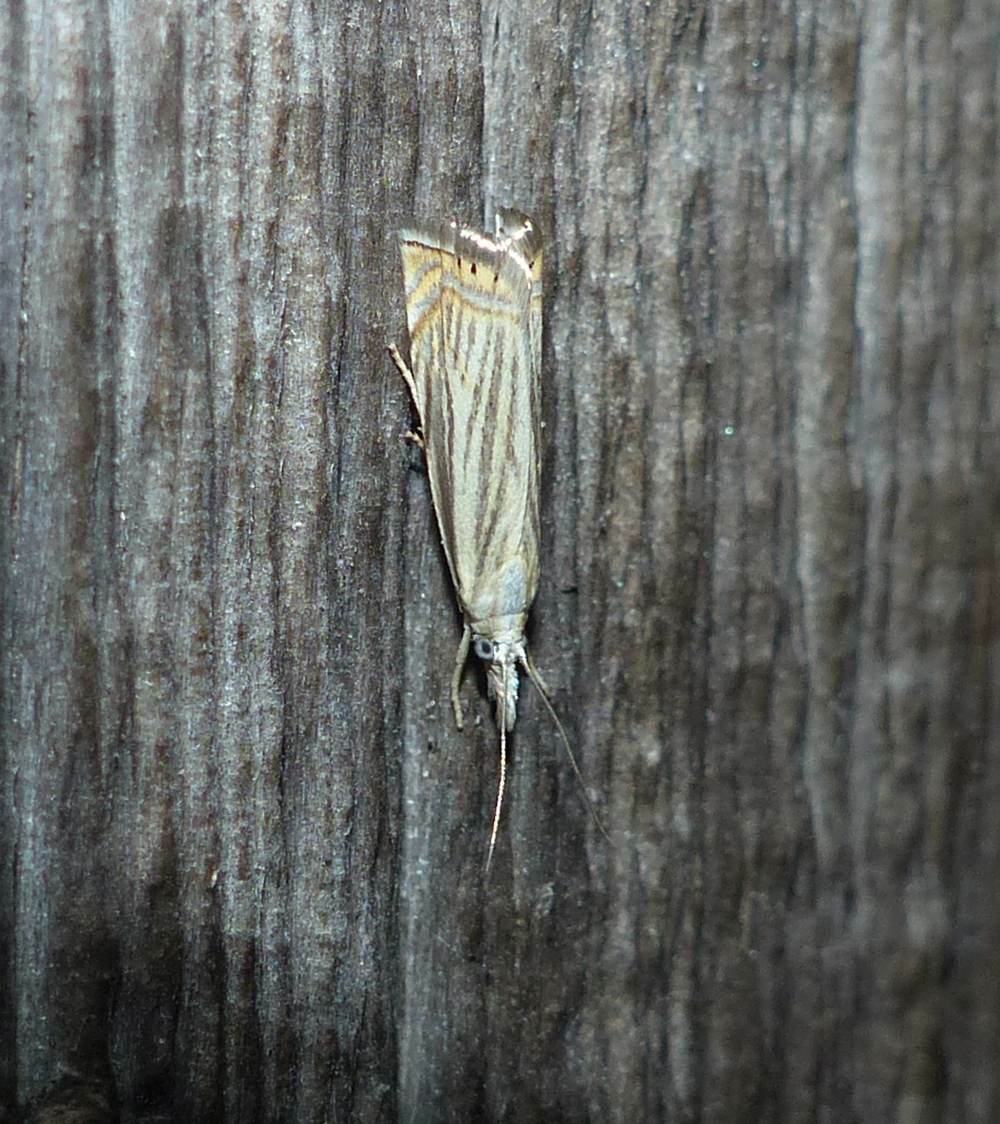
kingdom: Animalia
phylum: Arthropoda
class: Insecta
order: Lepidoptera
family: Crambidae
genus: Chrysoteuchia
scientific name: Chrysoteuchia topiarius
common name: Topiary grass-veneer
